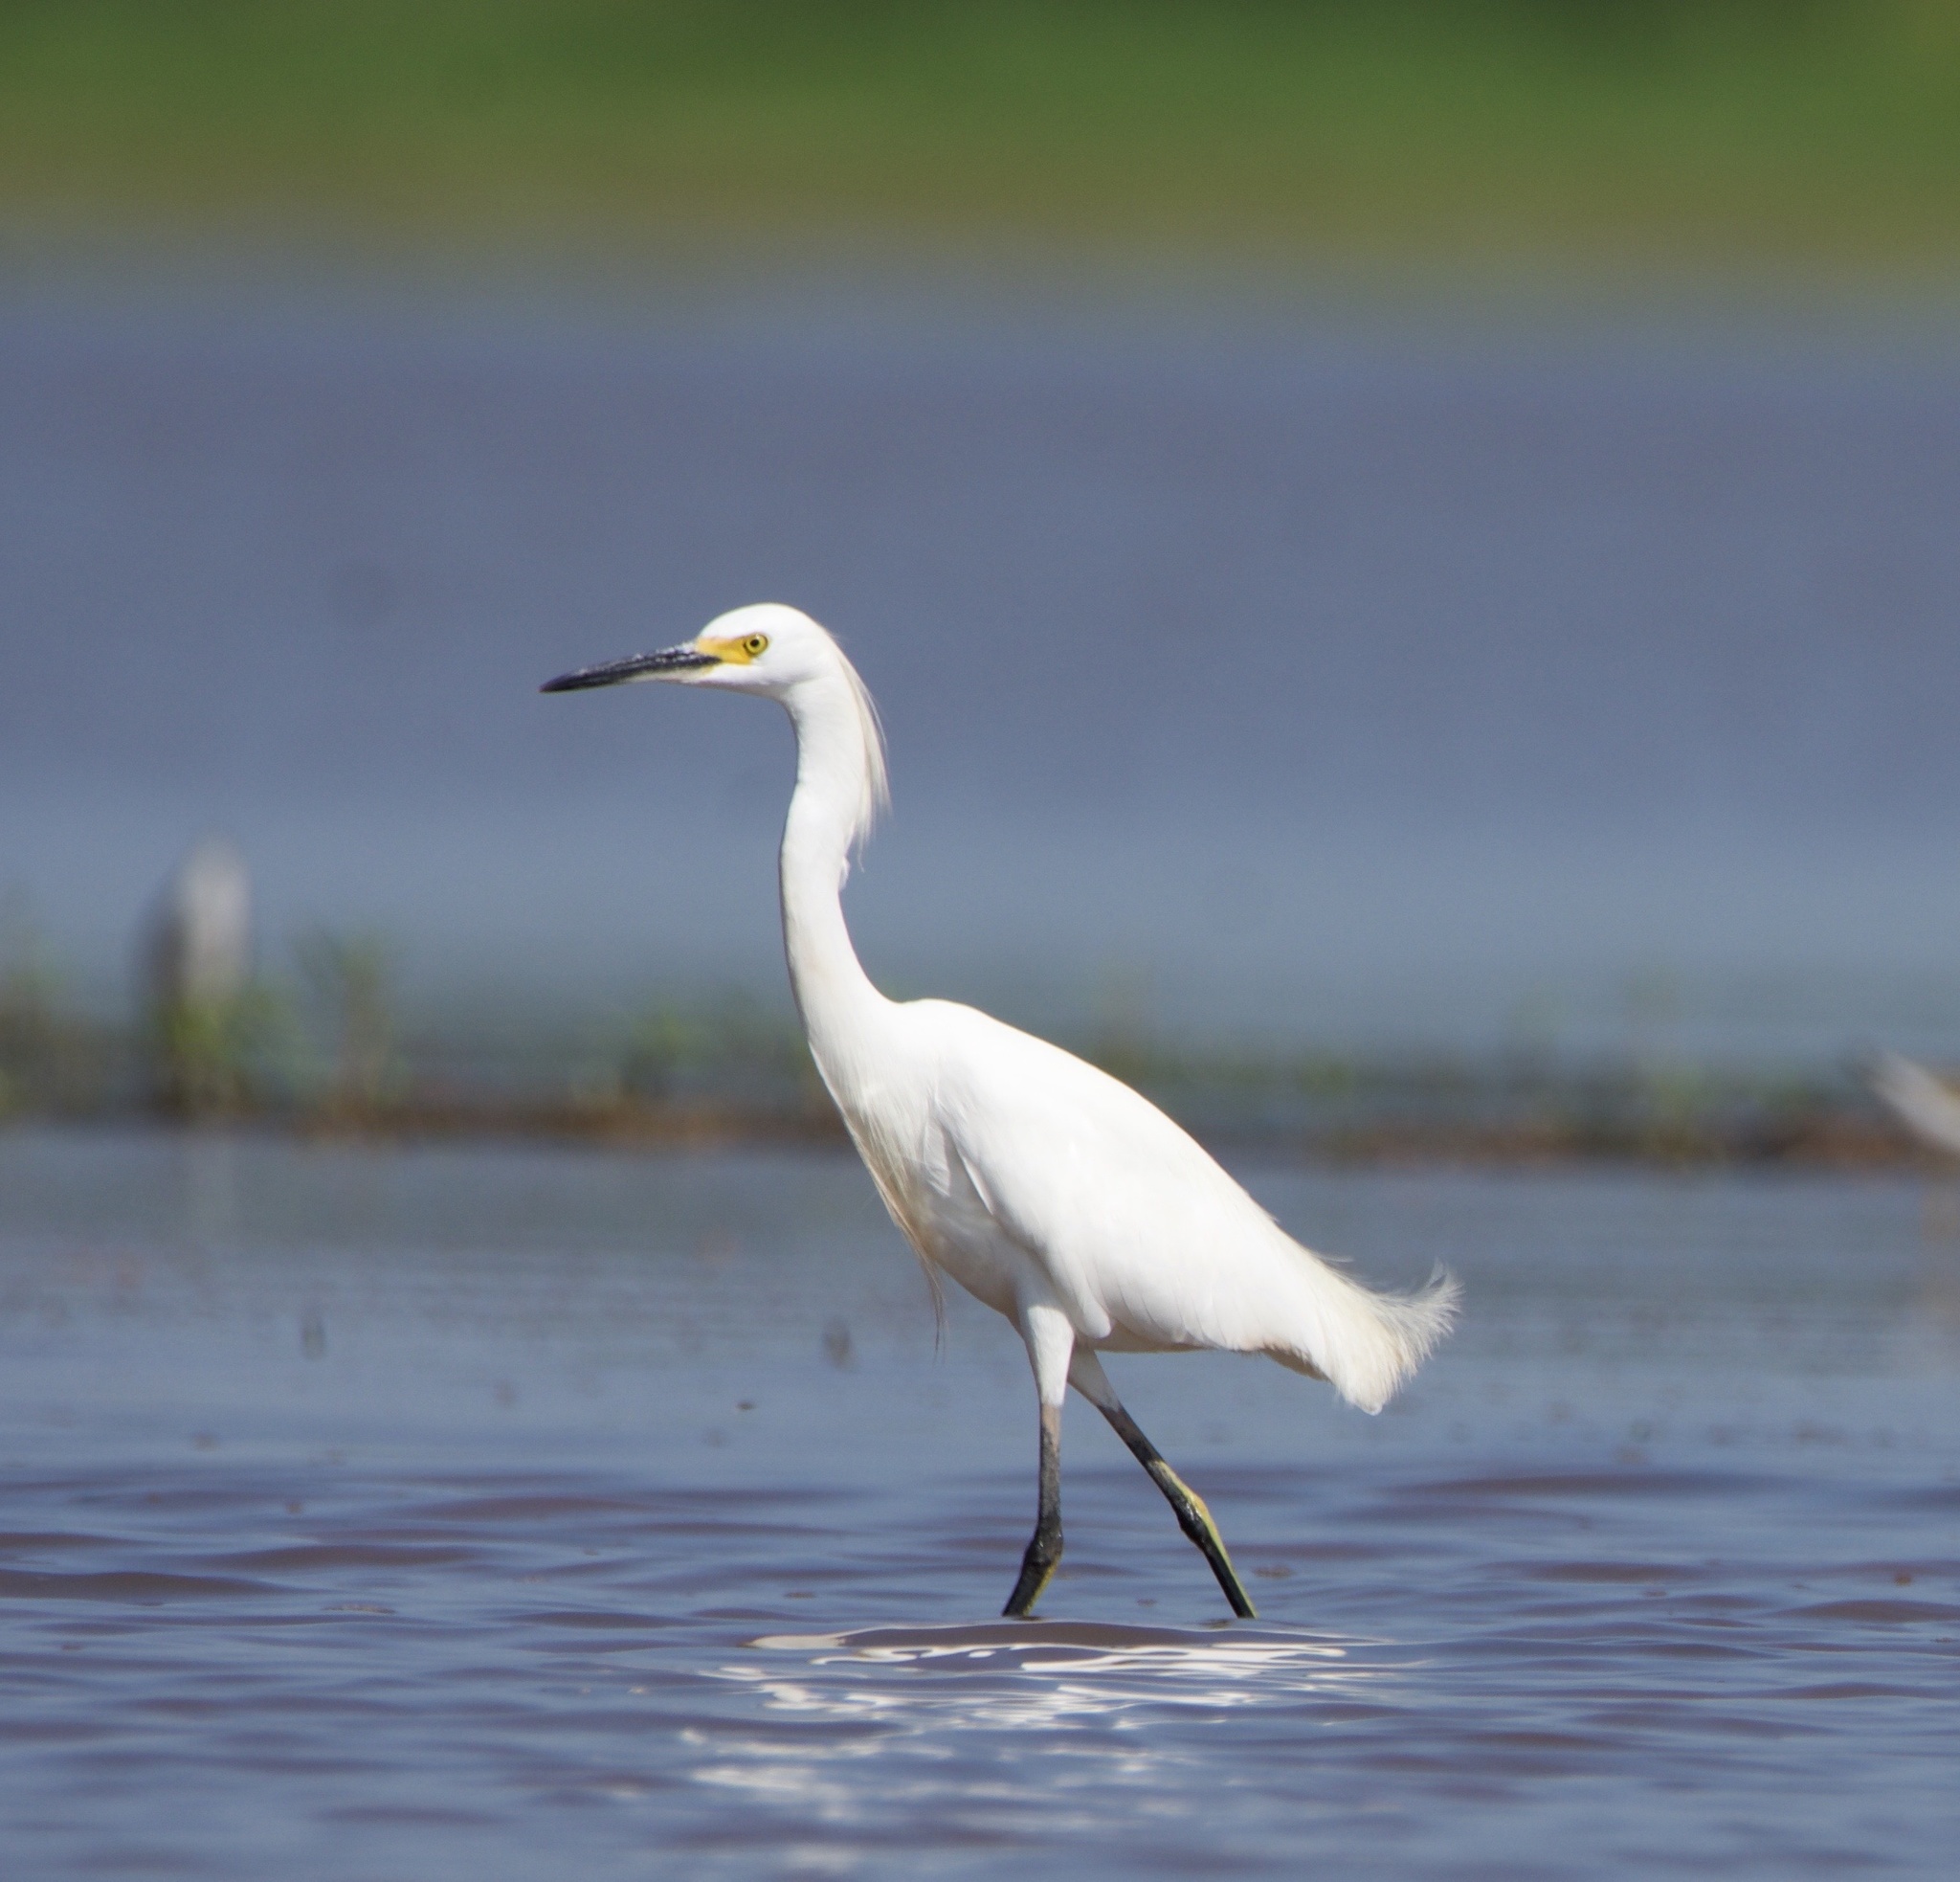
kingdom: Animalia
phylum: Chordata
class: Aves
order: Pelecaniformes
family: Ardeidae
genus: Egretta
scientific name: Egretta thula
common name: Snowy egret
